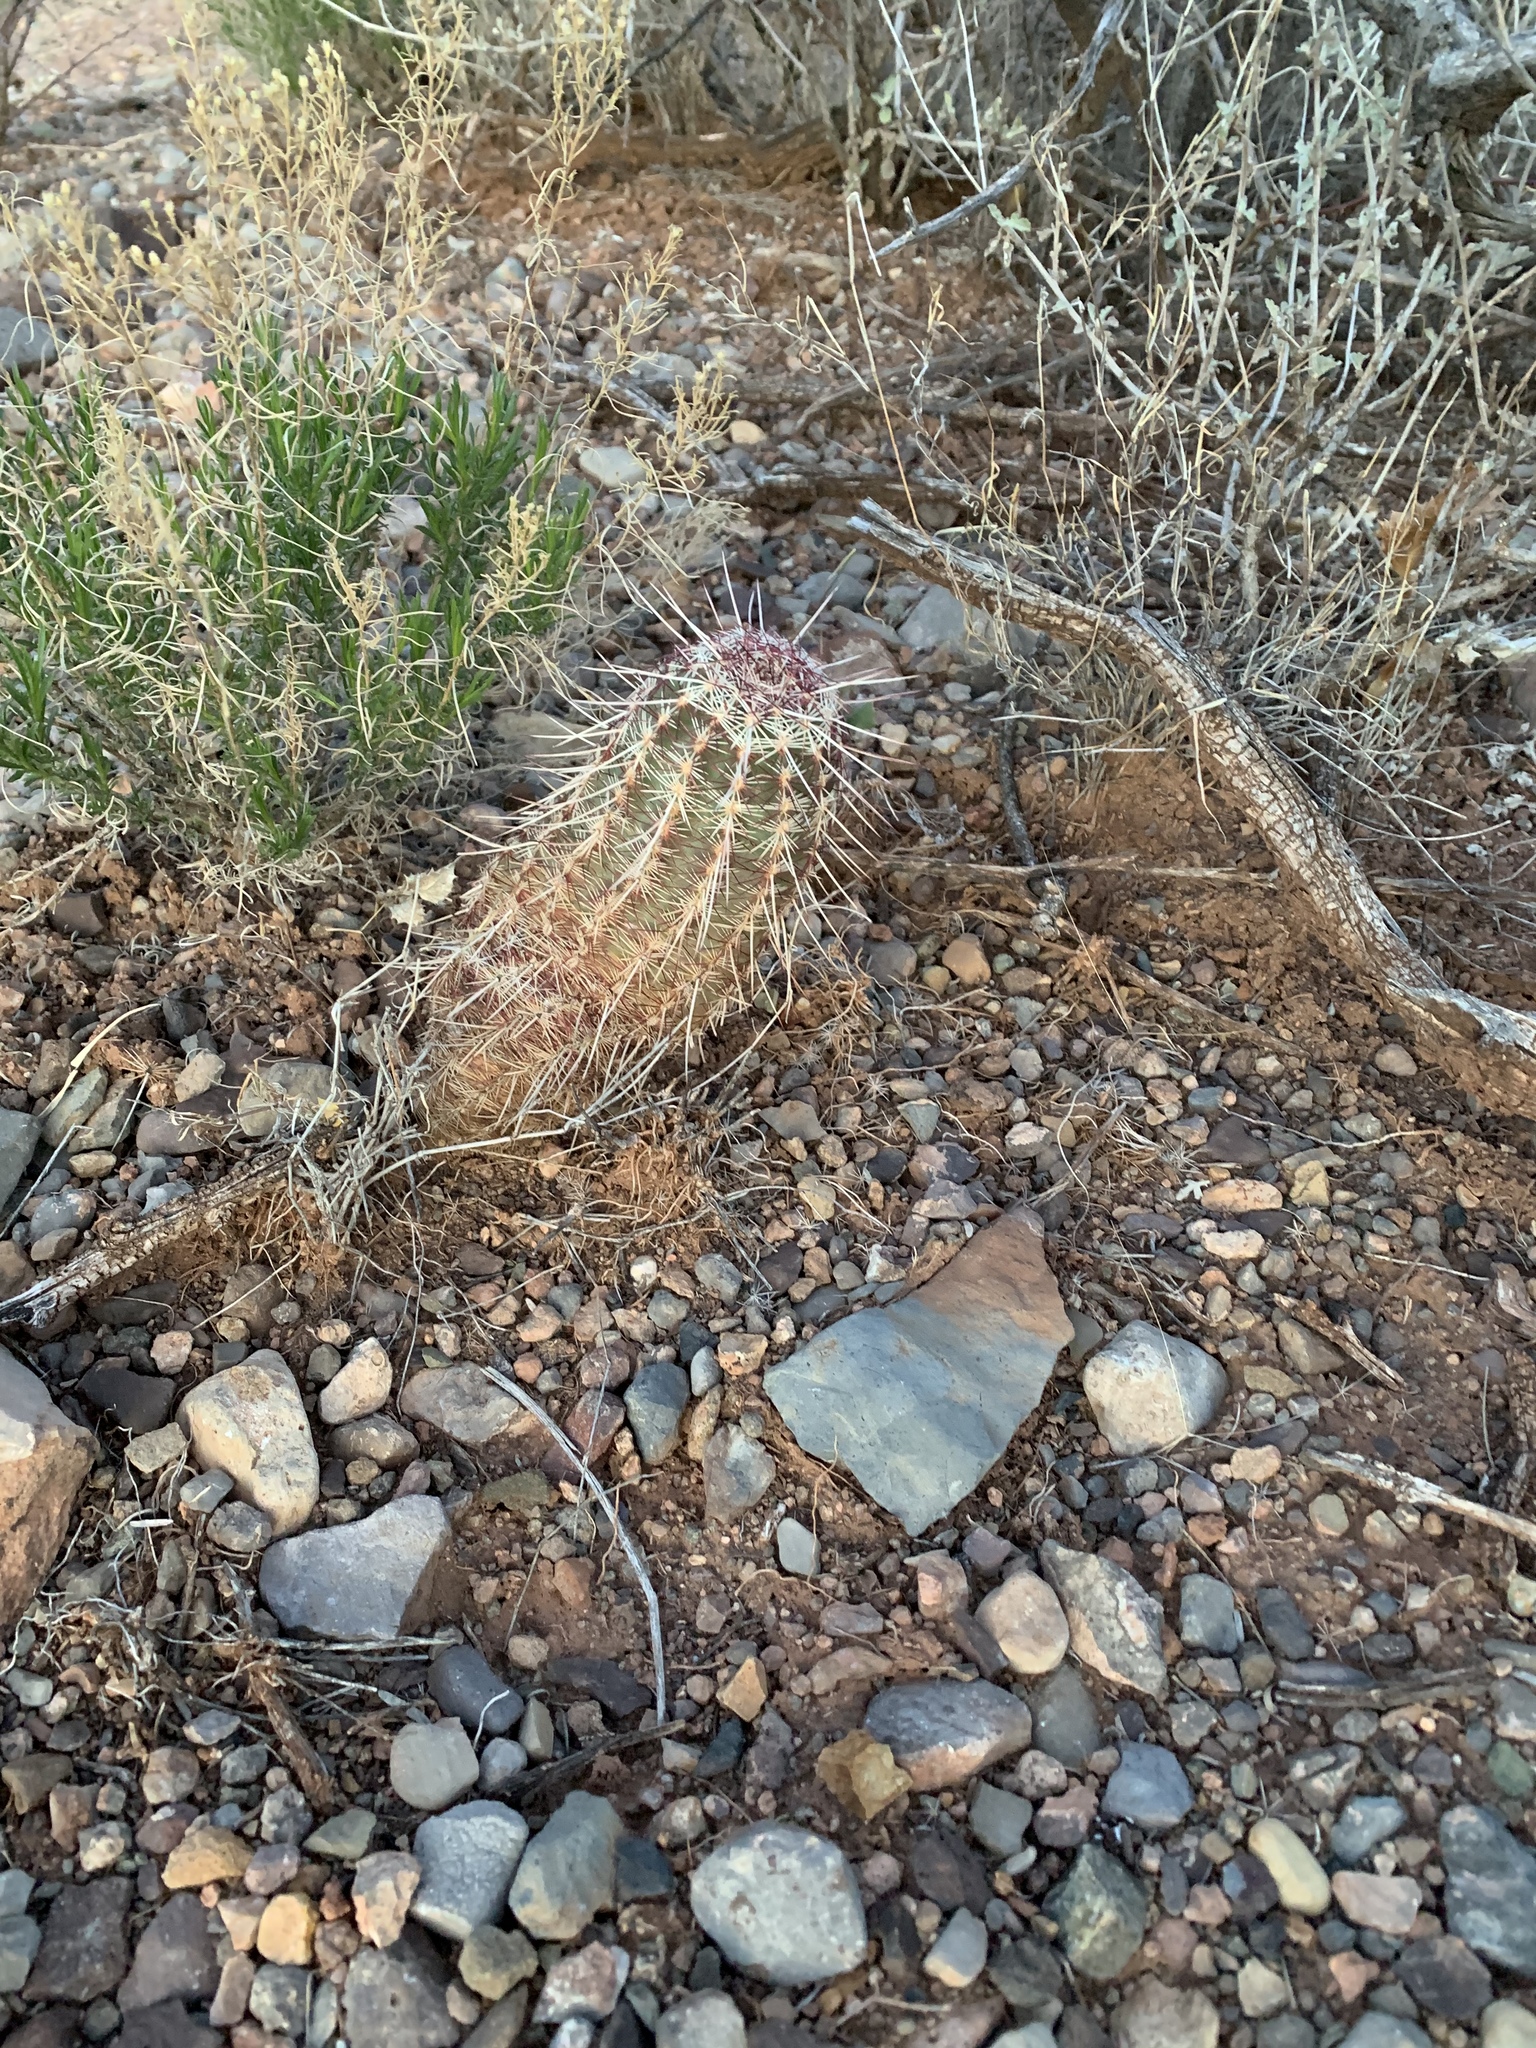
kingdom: Plantae
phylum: Tracheophyta
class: Magnoliopsida
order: Caryophyllales
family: Cactaceae
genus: Echinocereus
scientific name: Echinocereus viridiflorus
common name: Nylon hedgehog cactus
